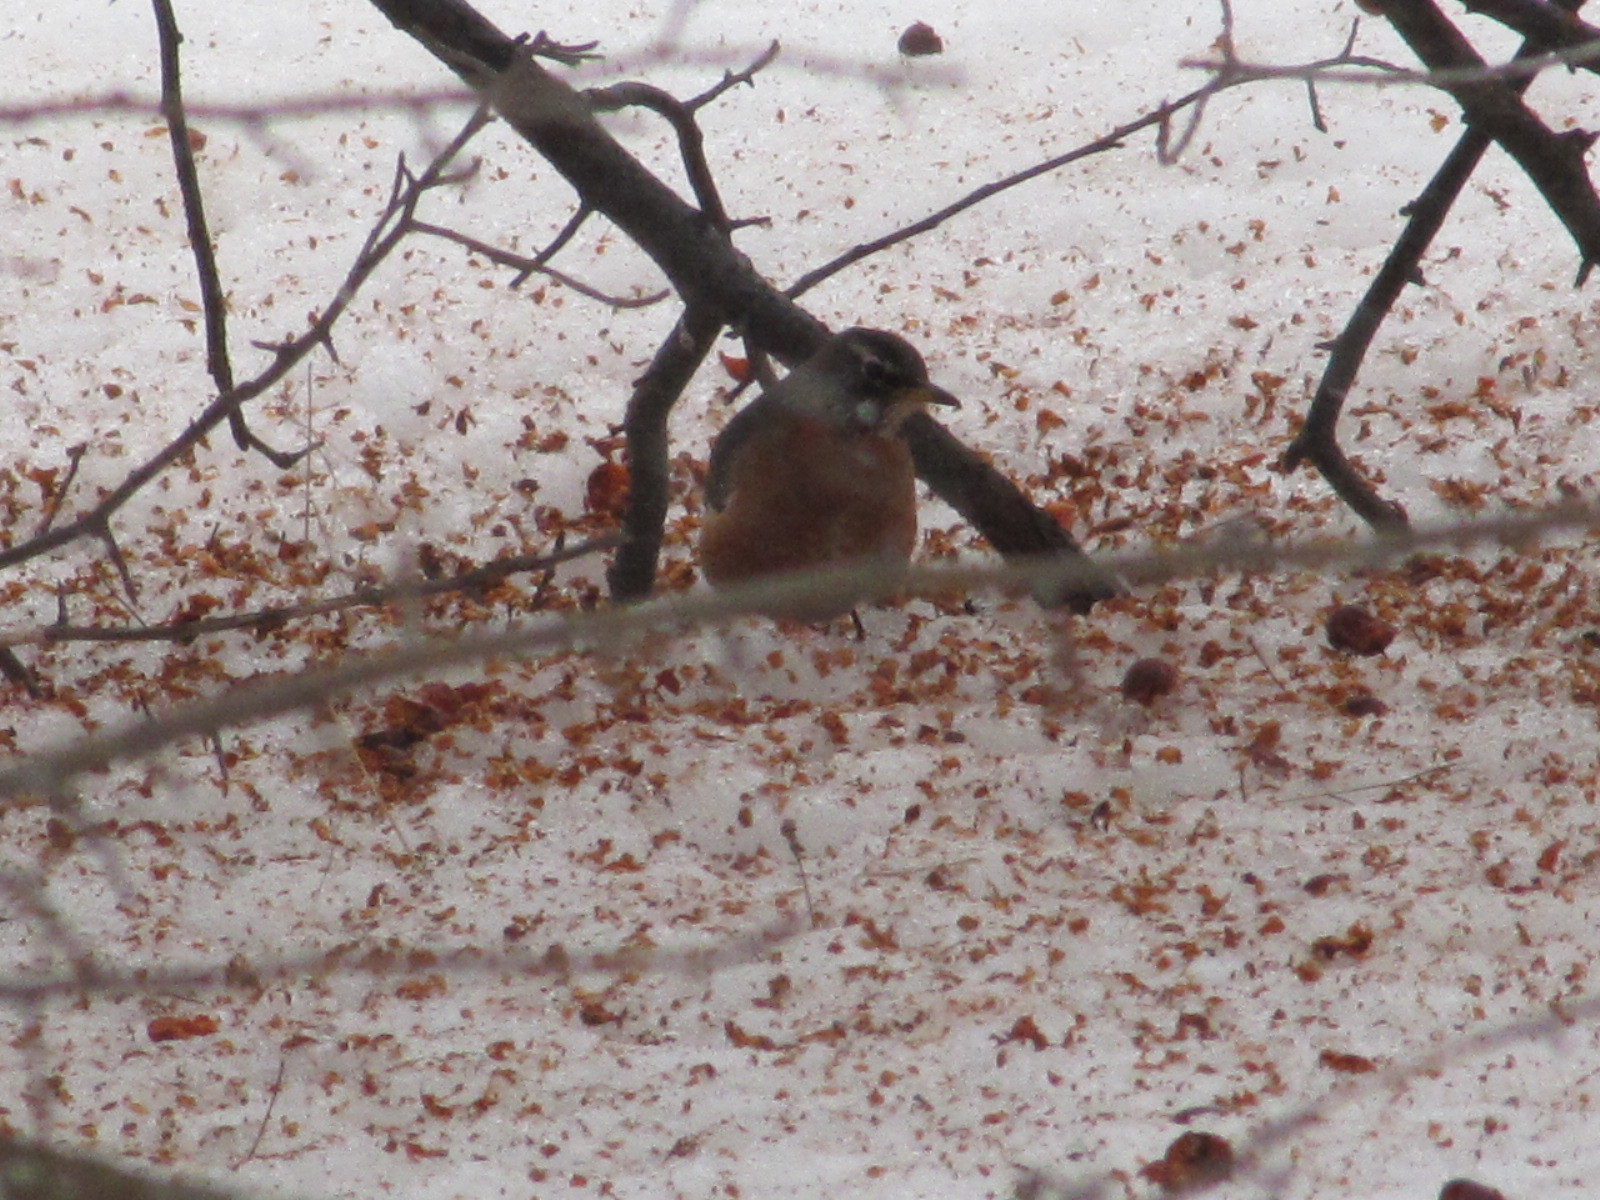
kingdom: Animalia
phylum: Chordata
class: Aves
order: Passeriformes
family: Turdidae
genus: Turdus
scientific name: Turdus migratorius
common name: American robin
